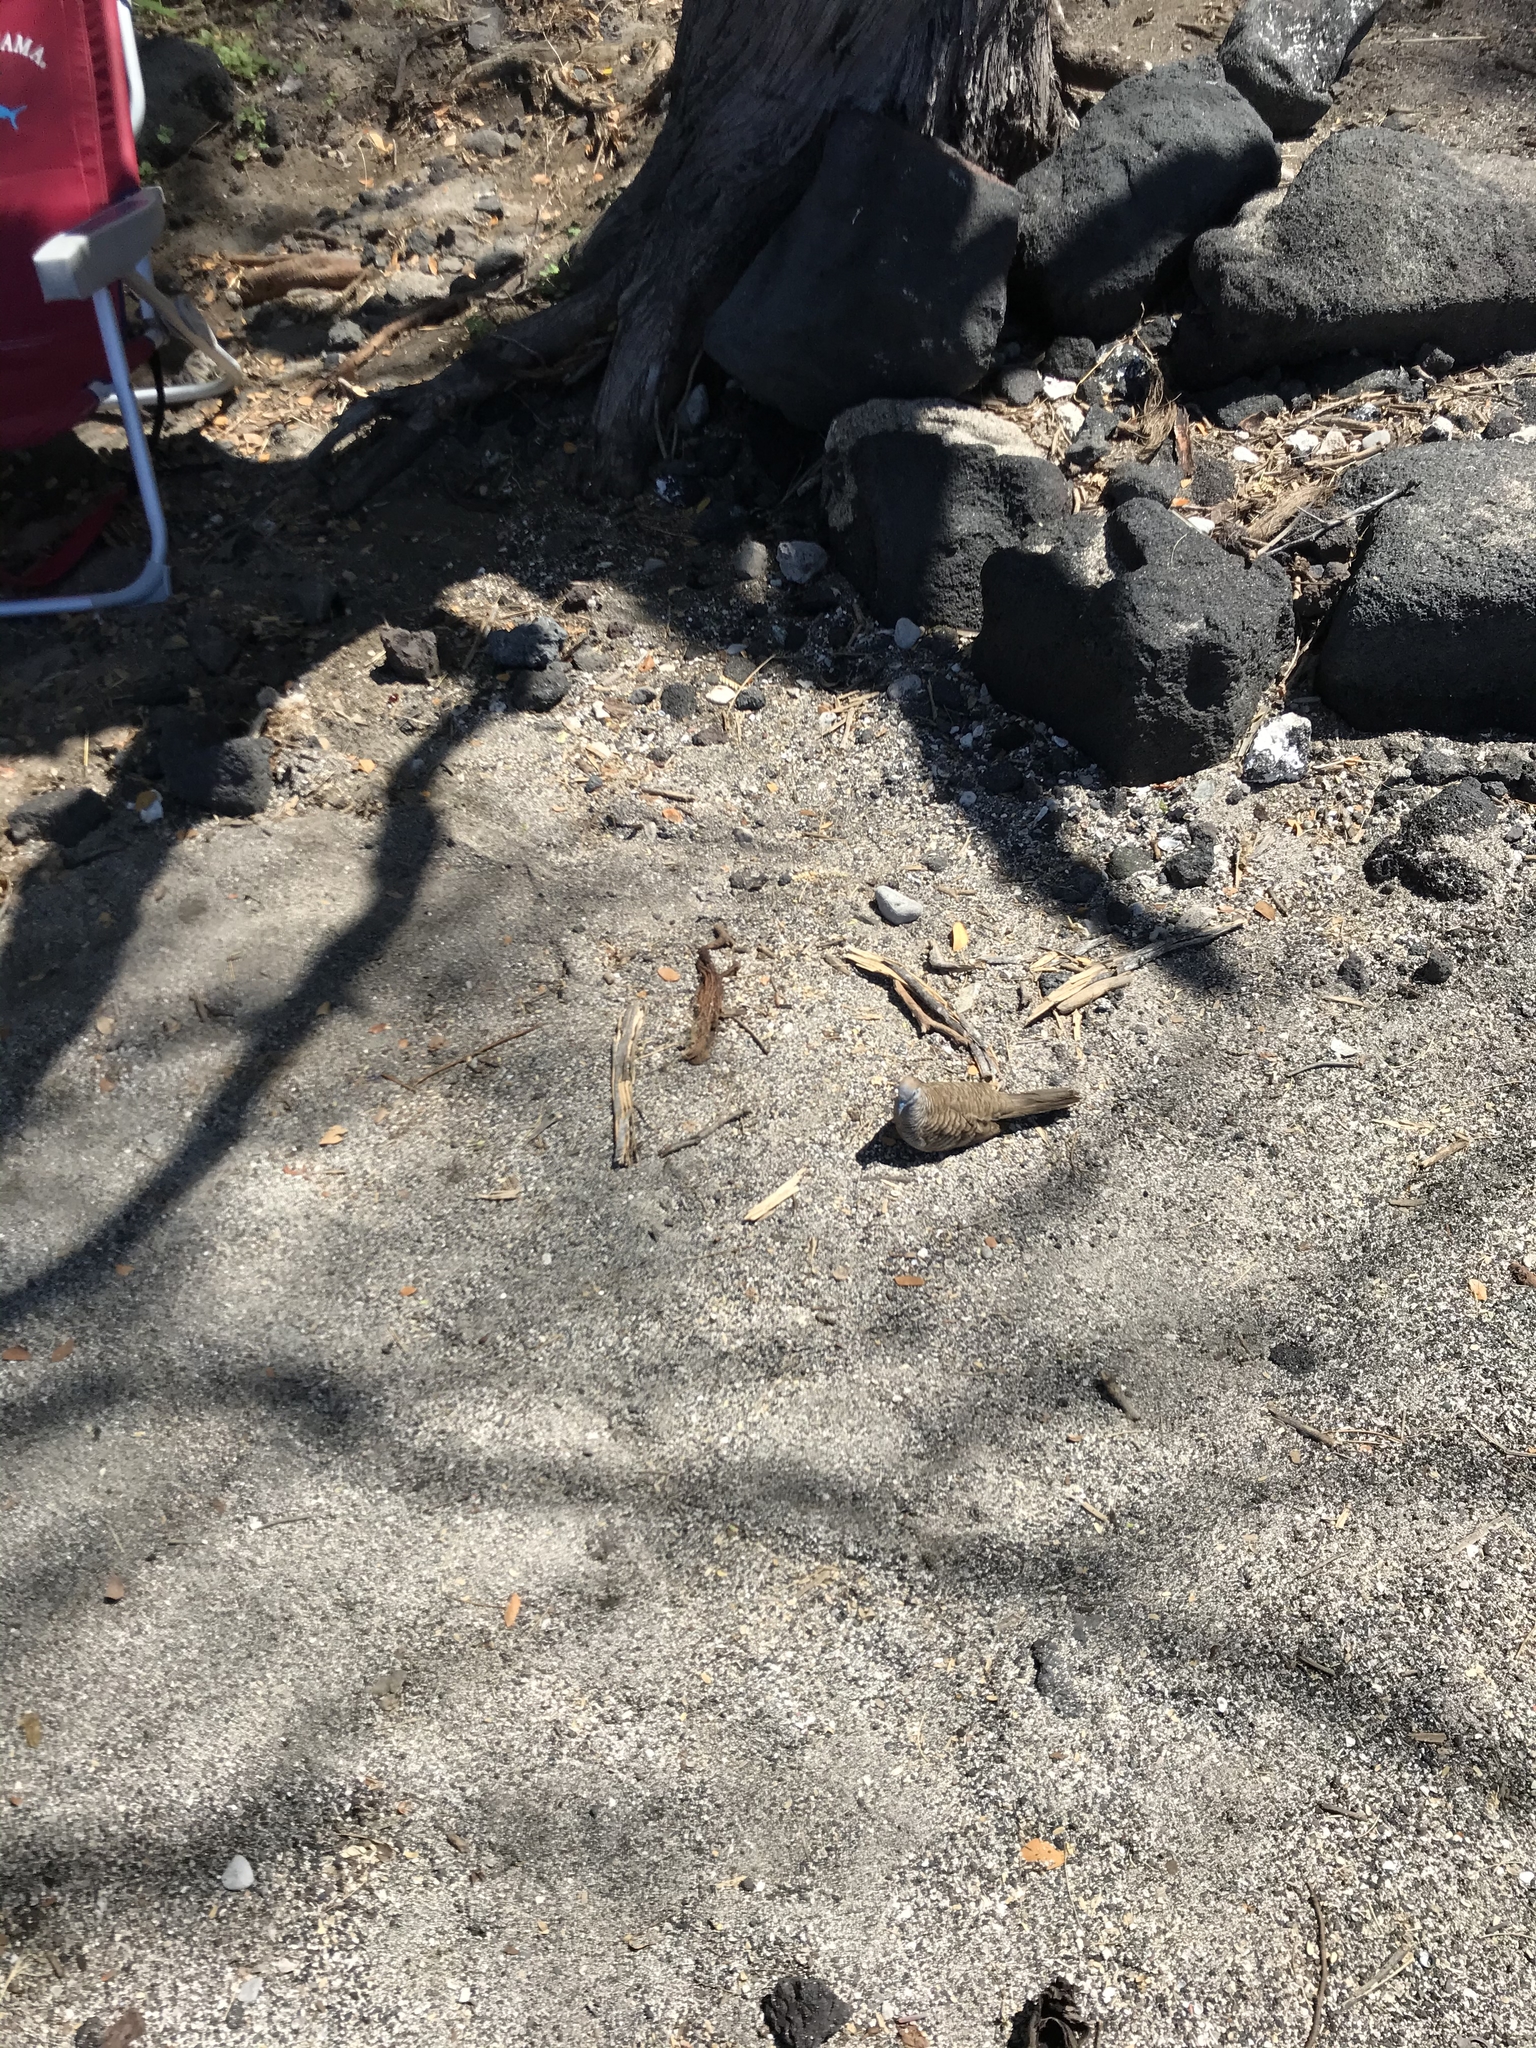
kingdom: Animalia
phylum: Chordata
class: Aves
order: Columbiformes
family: Columbidae
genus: Geopelia
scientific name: Geopelia striata
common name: Zebra dove
